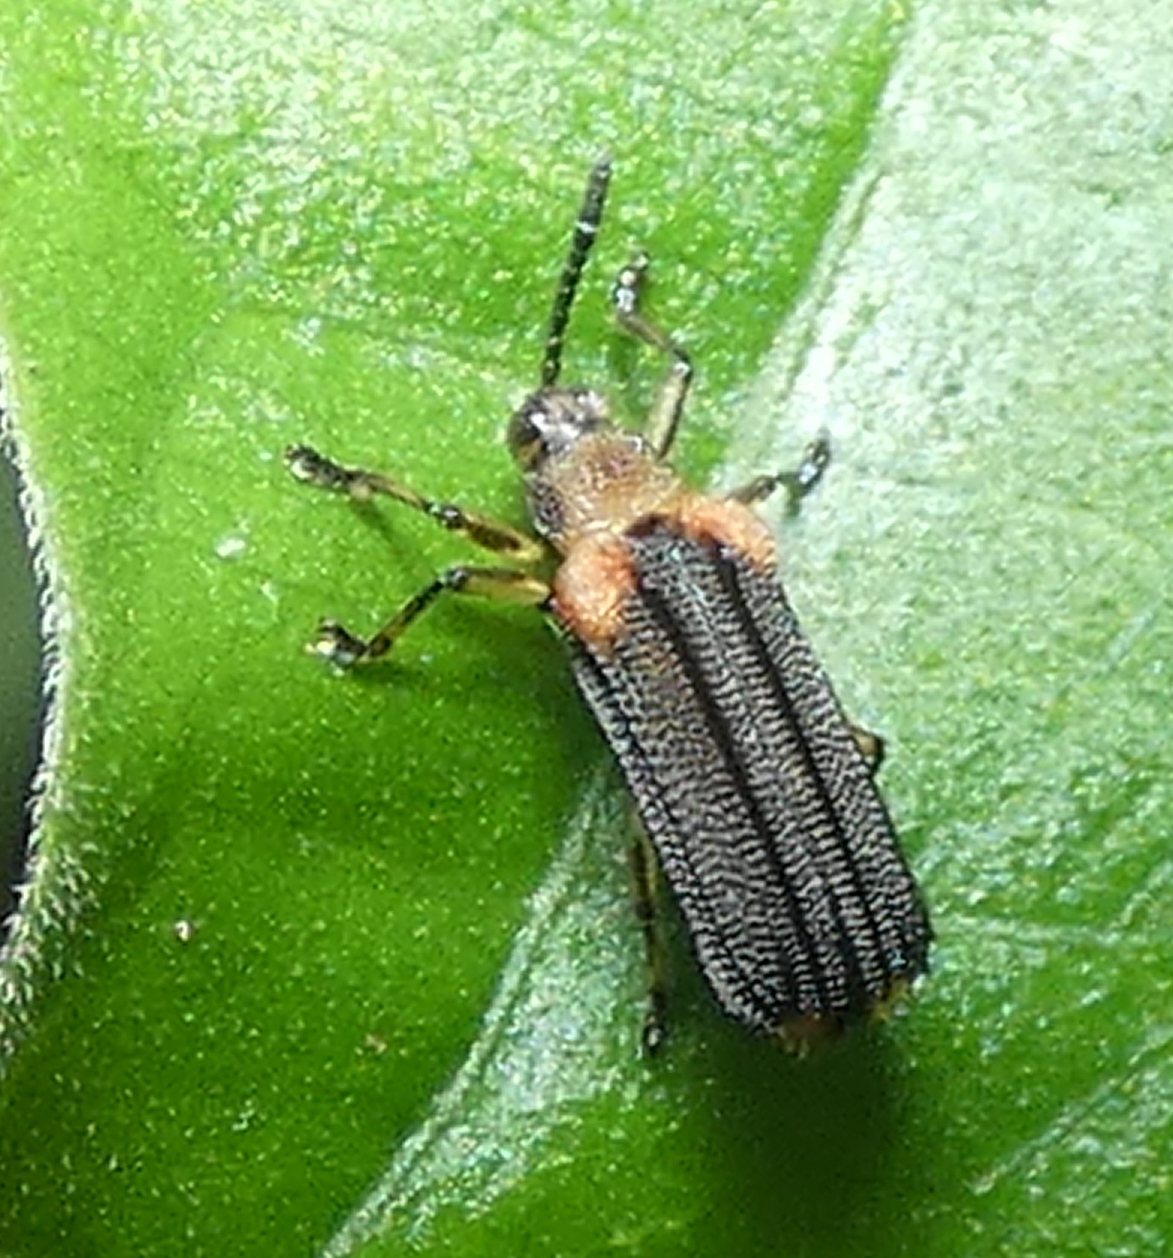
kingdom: Animalia
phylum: Arthropoda
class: Insecta
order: Coleoptera
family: Chrysomelidae
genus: Heterispa
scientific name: Heterispa vinula
